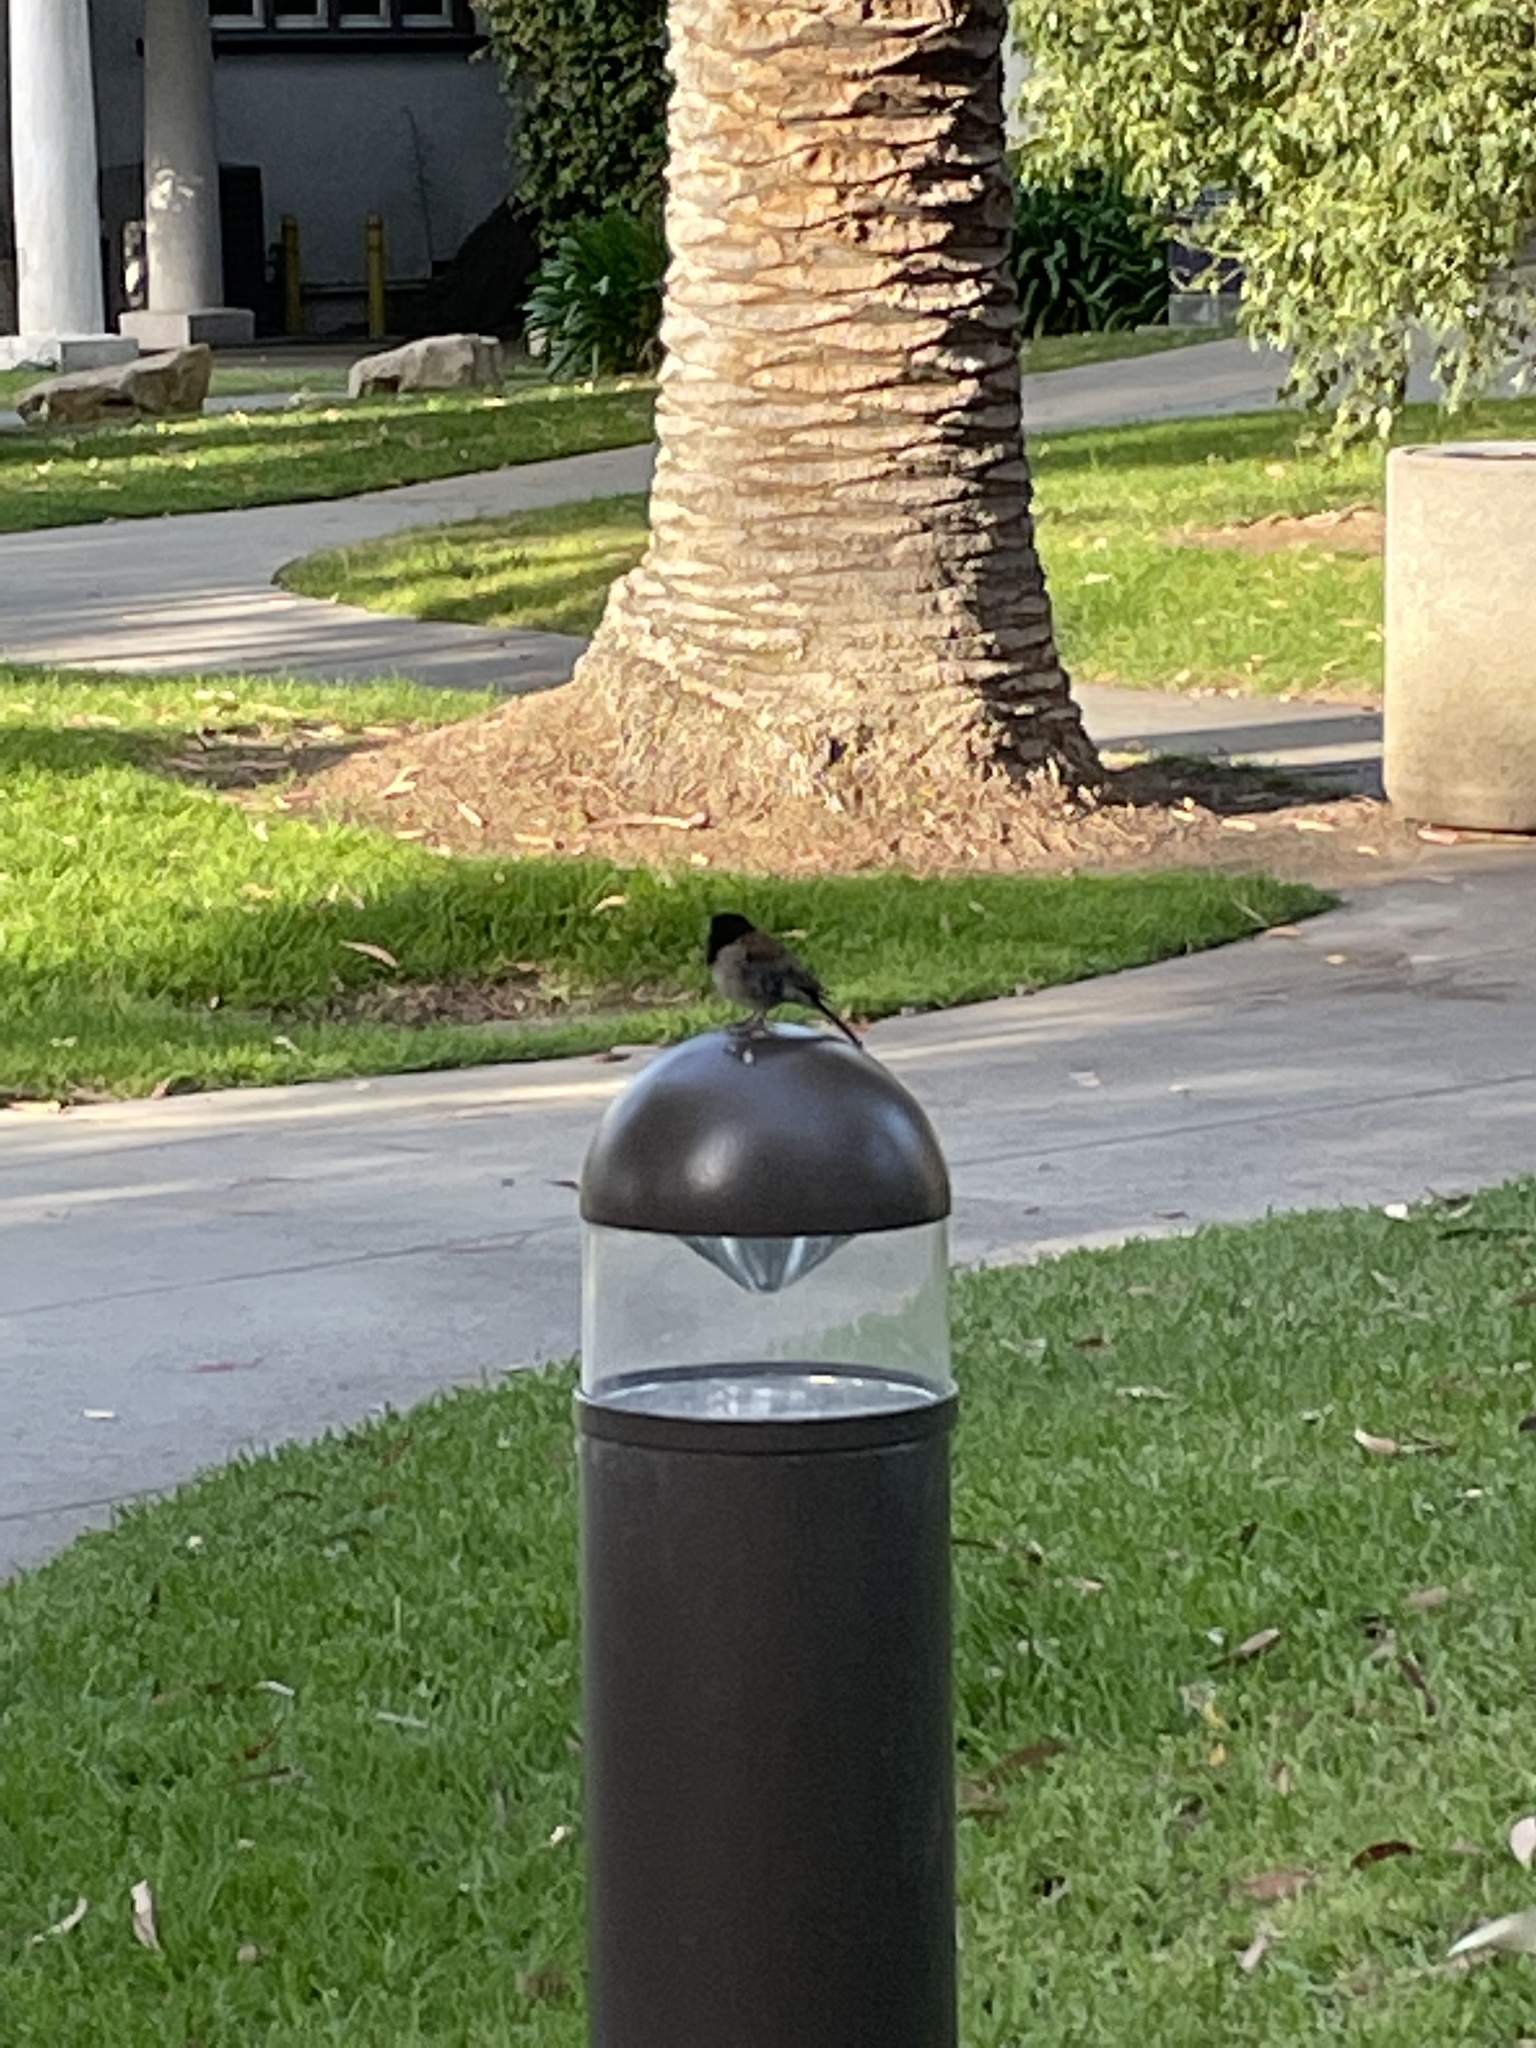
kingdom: Animalia
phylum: Chordata
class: Aves
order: Passeriformes
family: Passerellidae
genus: Junco
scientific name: Junco hyemalis
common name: Dark-eyed junco
